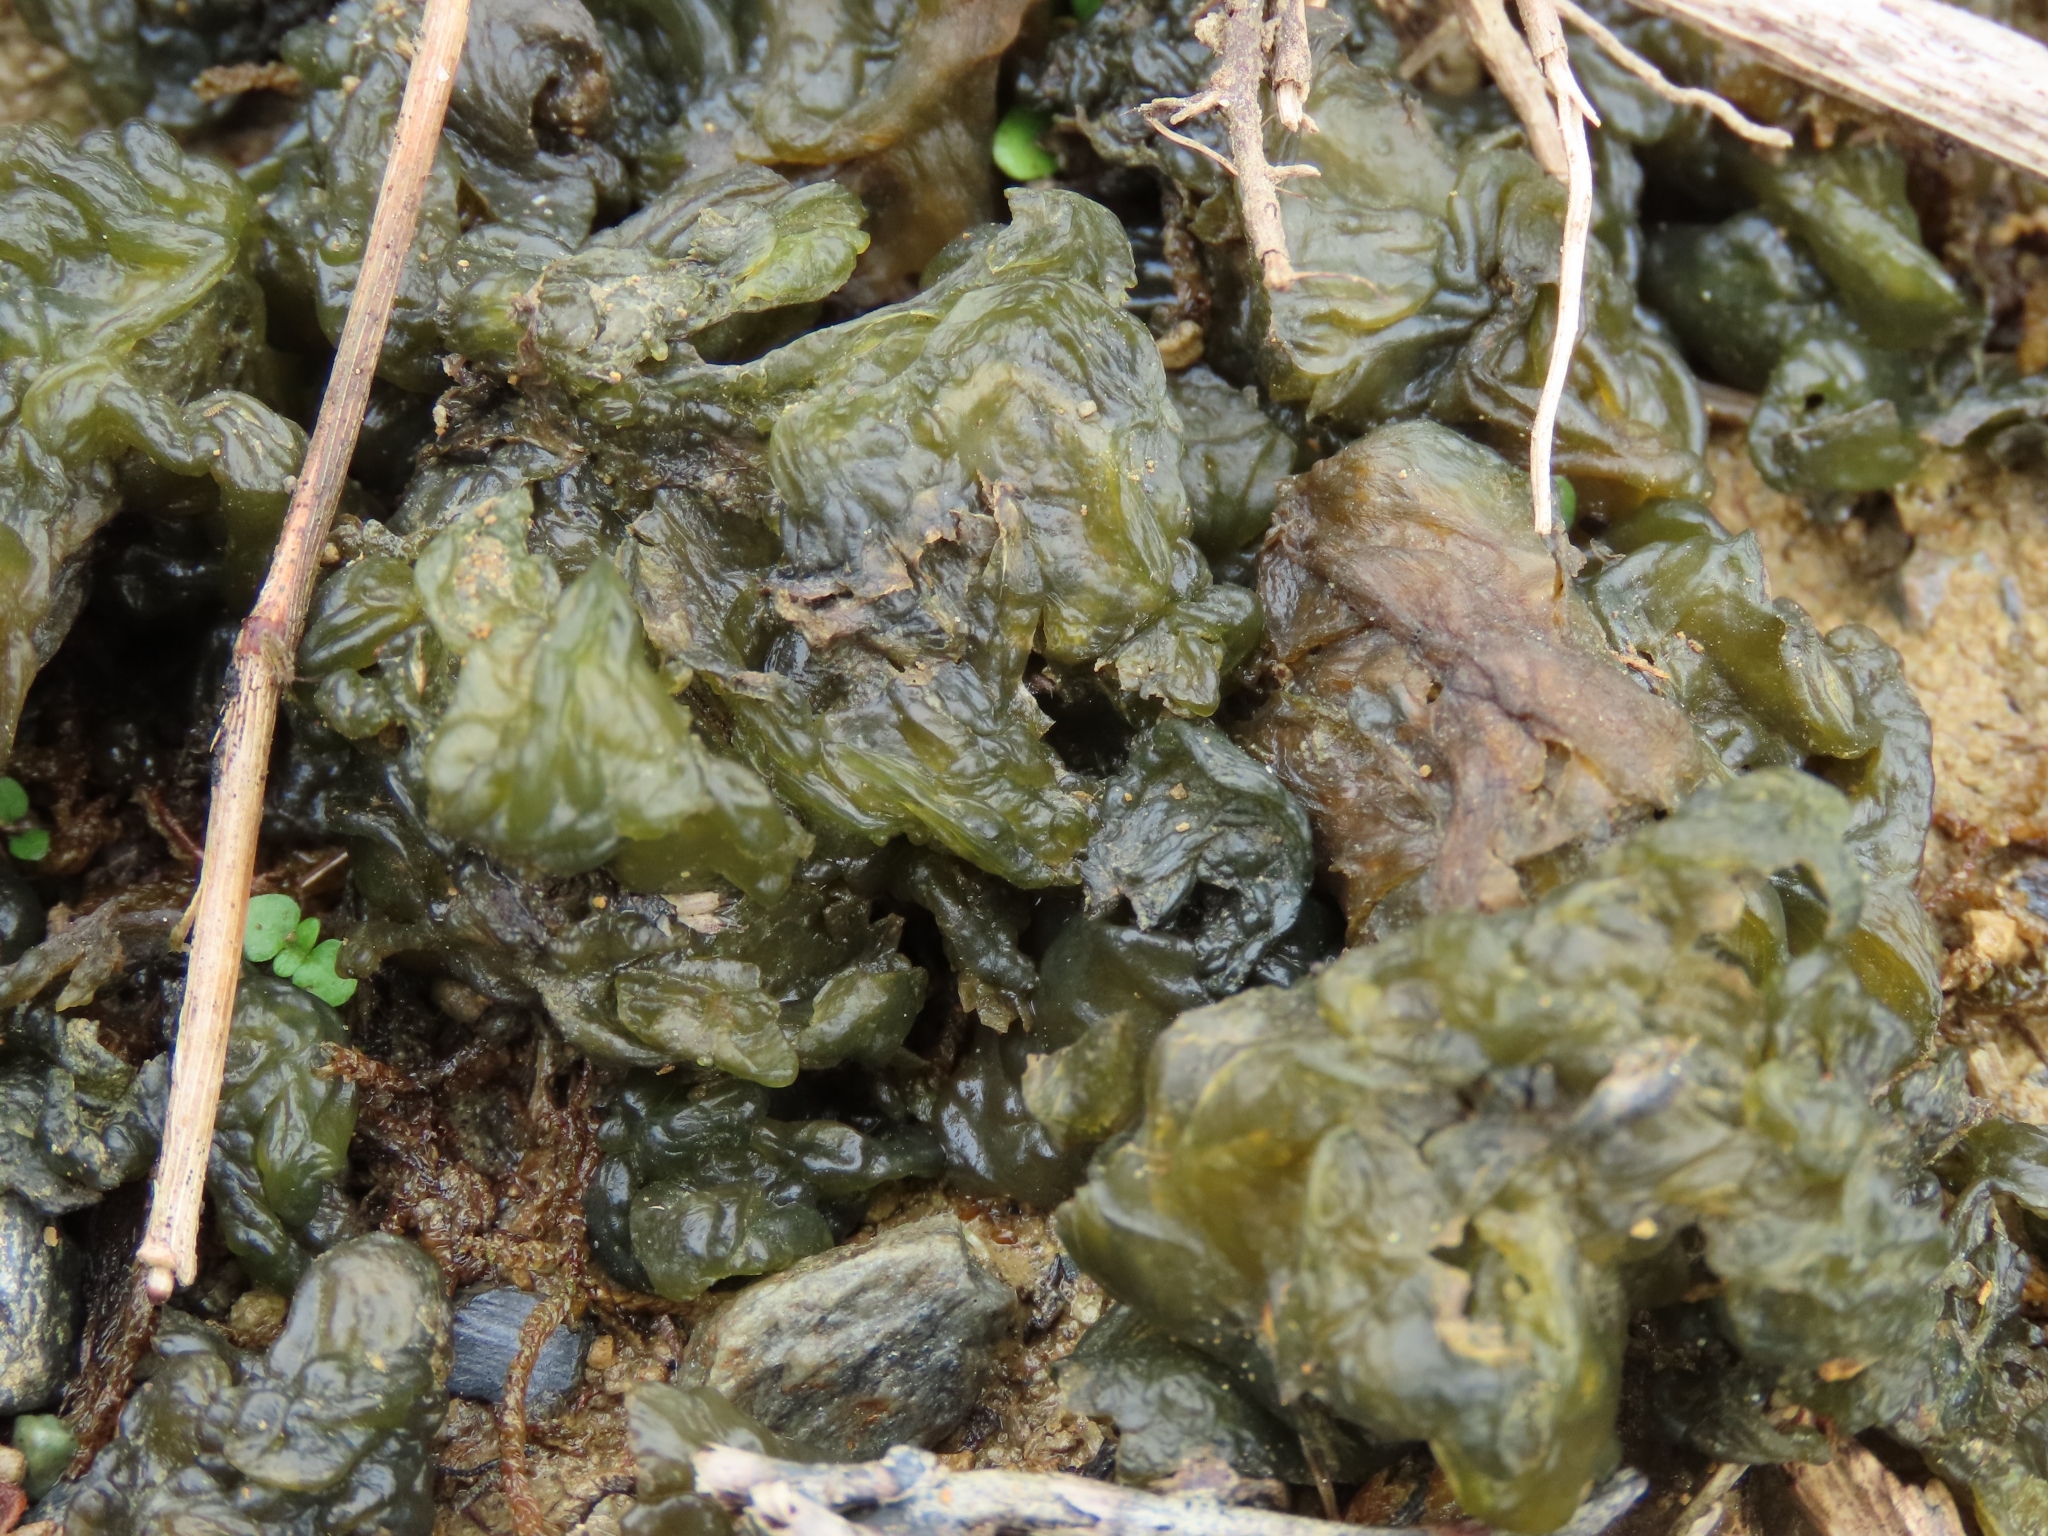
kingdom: Bacteria
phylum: Cyanobacteria
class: Cyanobacteriia
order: Cyanobacteriales
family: Nostocaceae
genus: Nostoc
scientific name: Nostoc commune
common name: Star jelly
